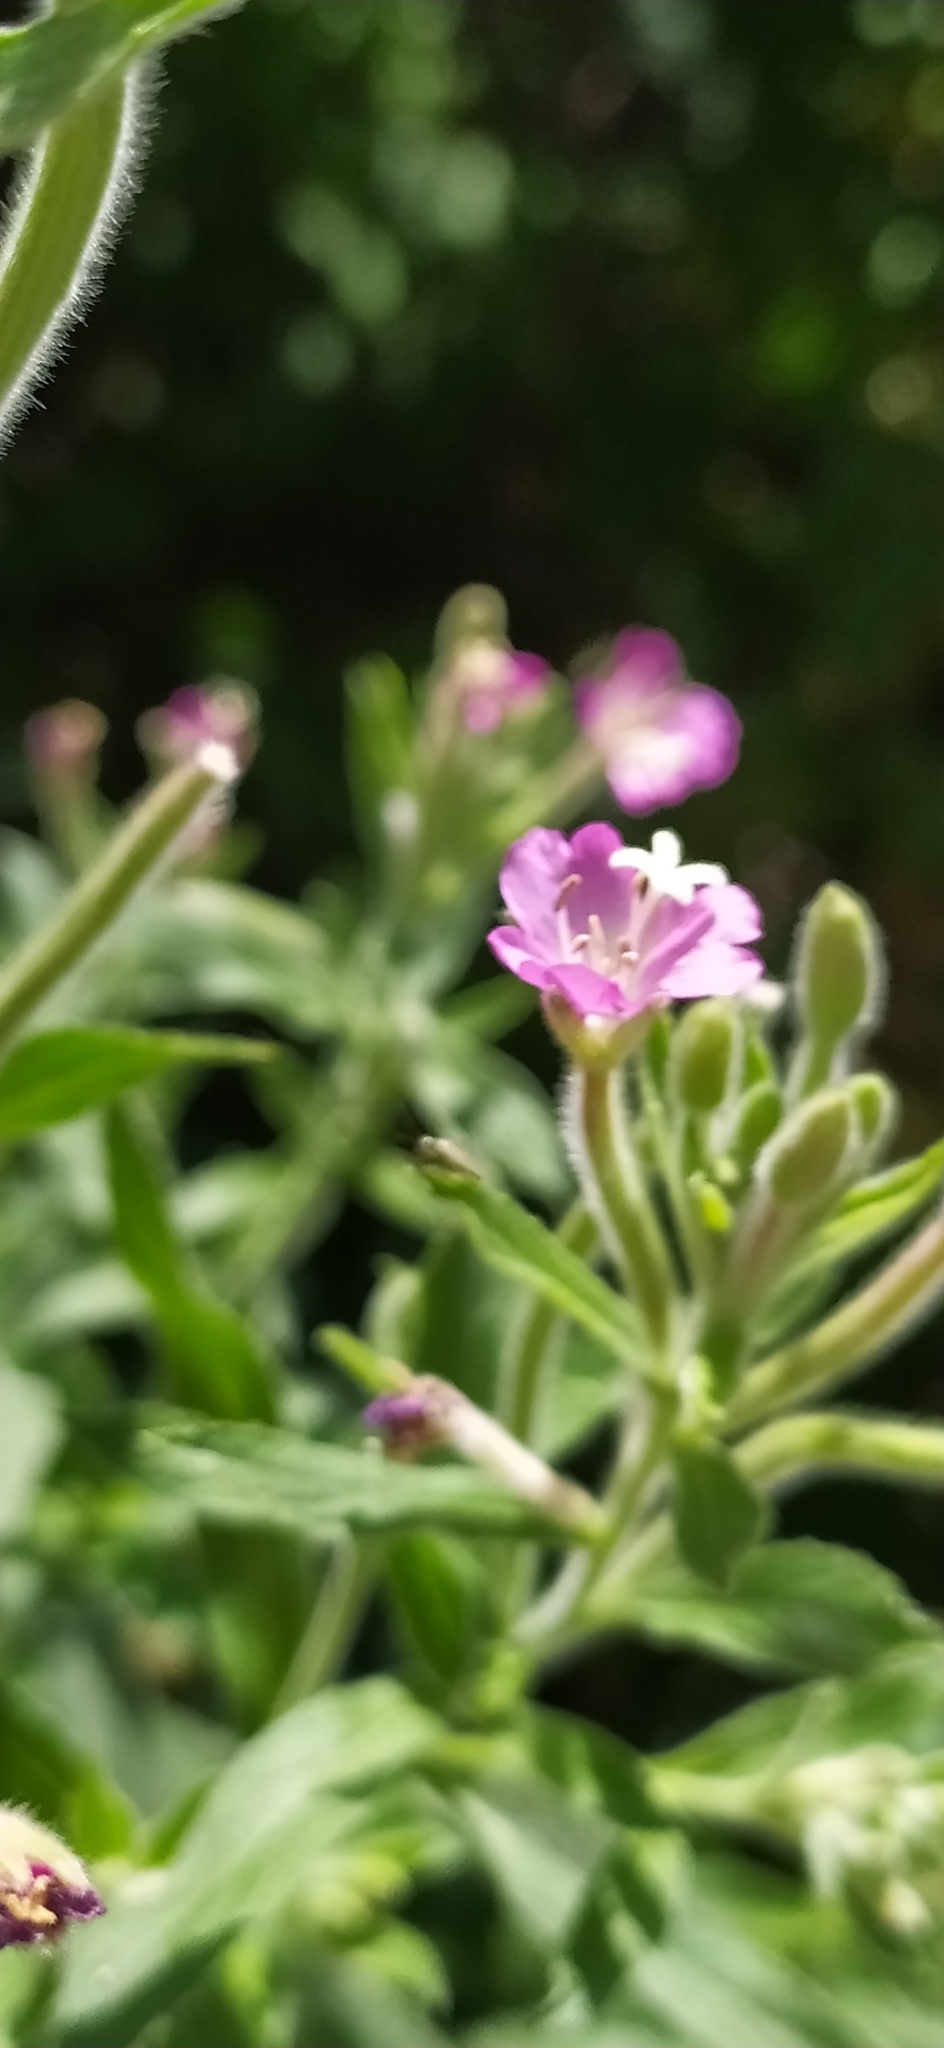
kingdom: Plantae
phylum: Tracheophyta
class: Magnoliopsida
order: Myrtales
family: Onagraceae
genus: Epilobium
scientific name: Epilobium hirsutum
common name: Great willowherb
